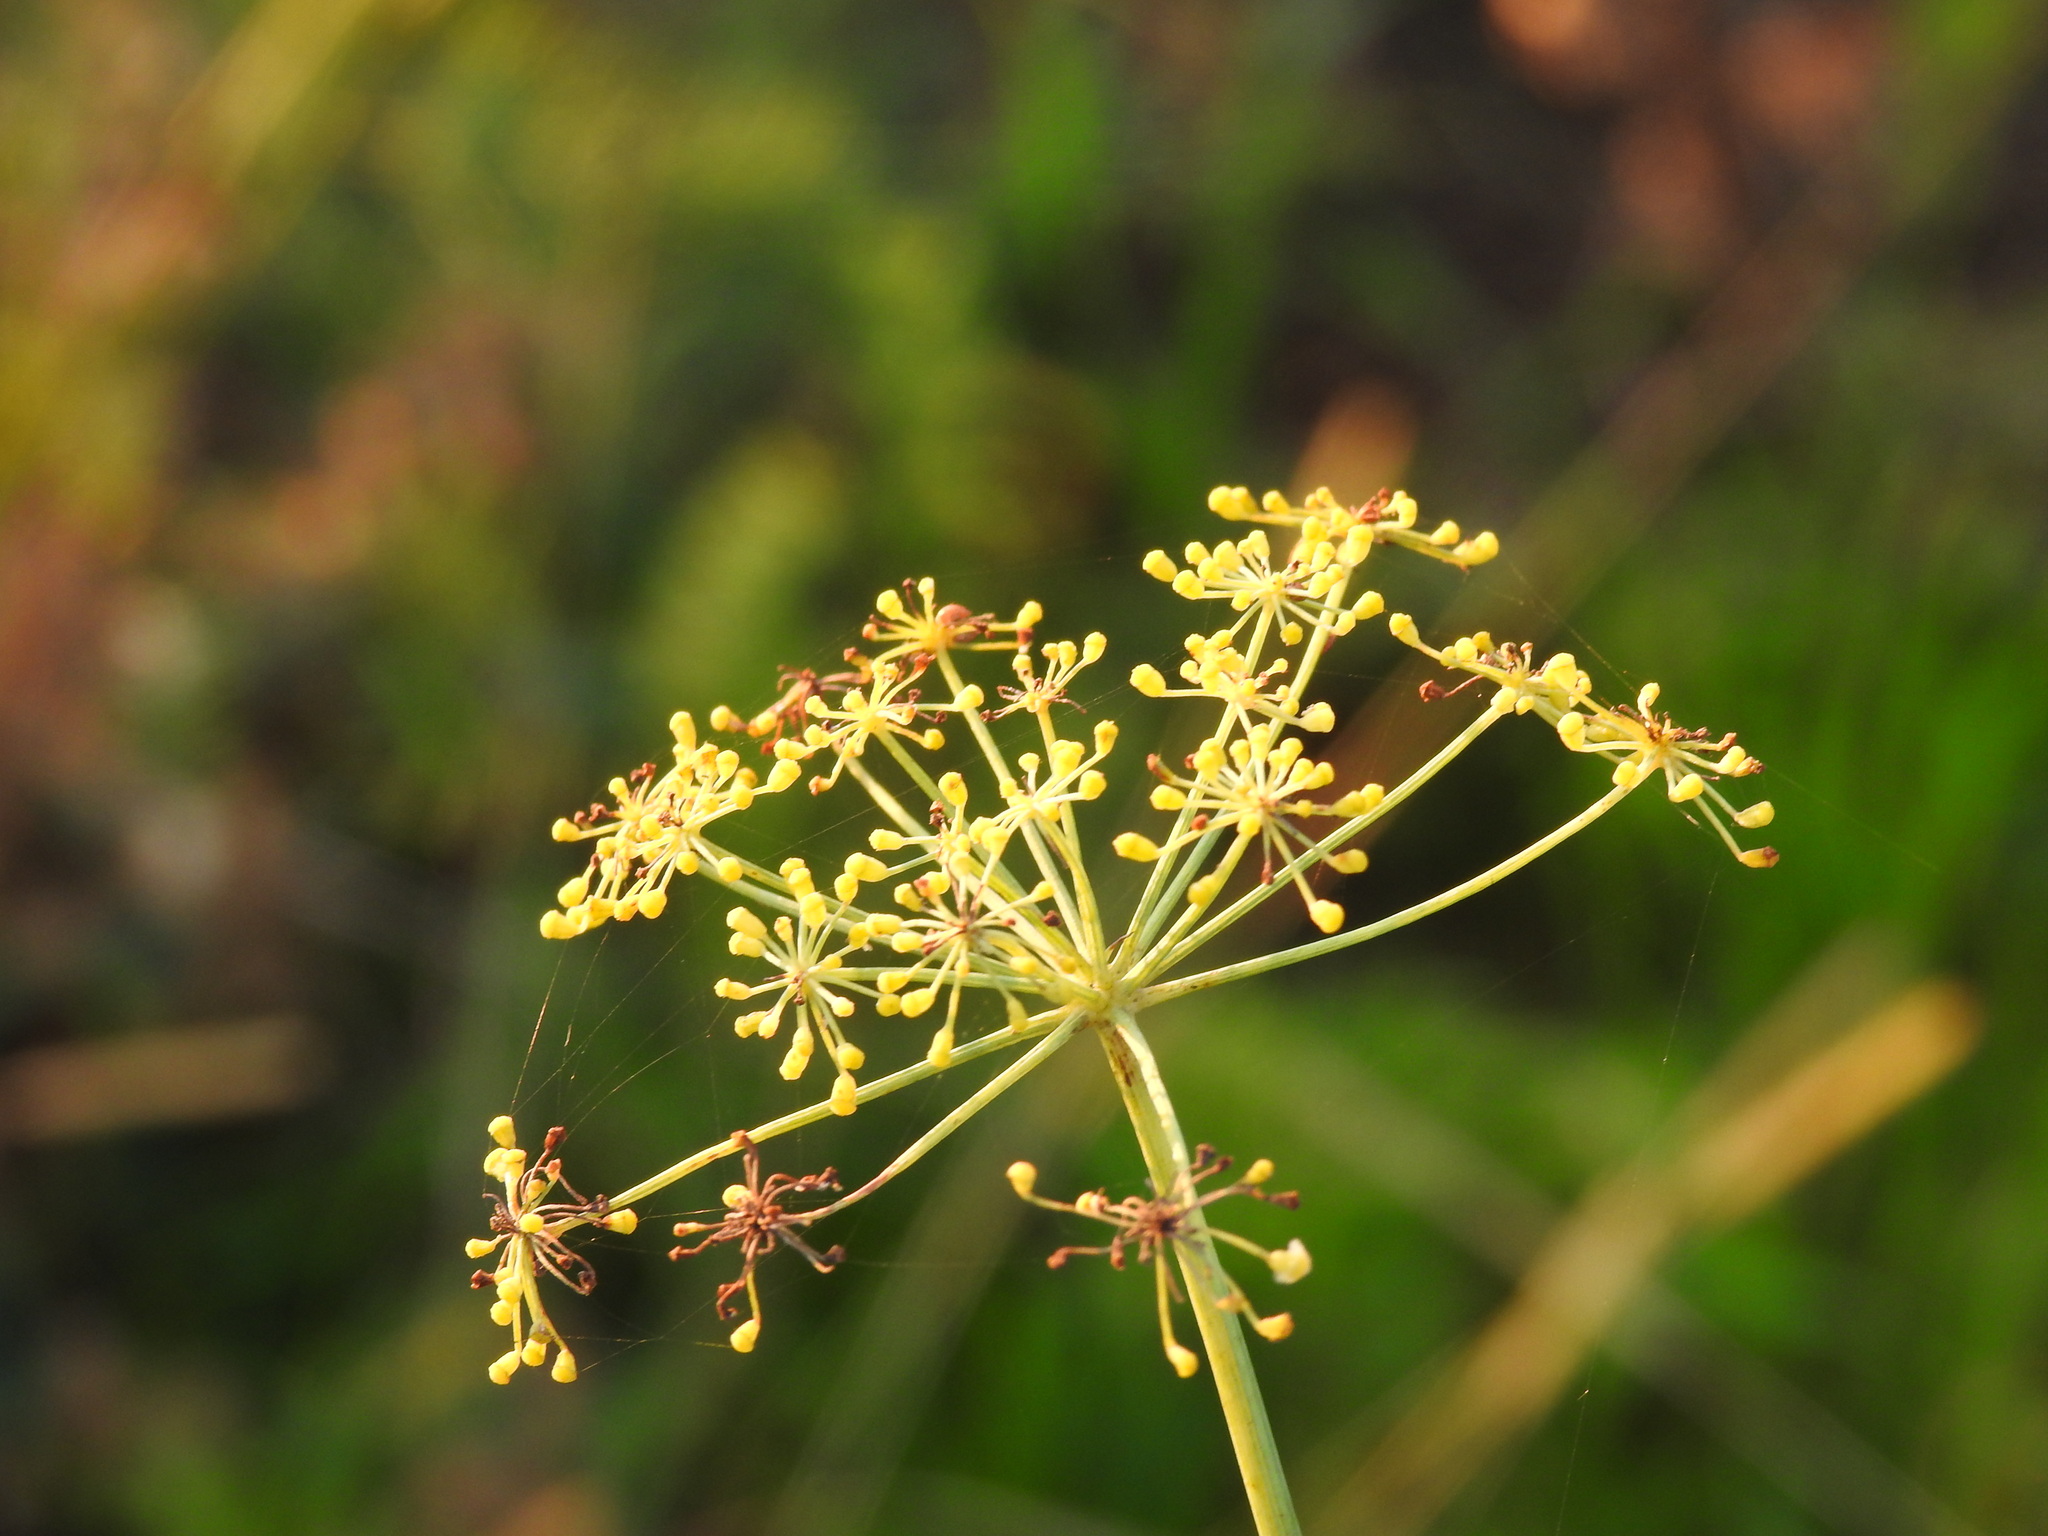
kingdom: Plantae
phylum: Tracheophyta
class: Magnoliopsida
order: Apiales
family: Apiaceae
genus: Foeniculum
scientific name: Foeniculum vulgare
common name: Fennel
